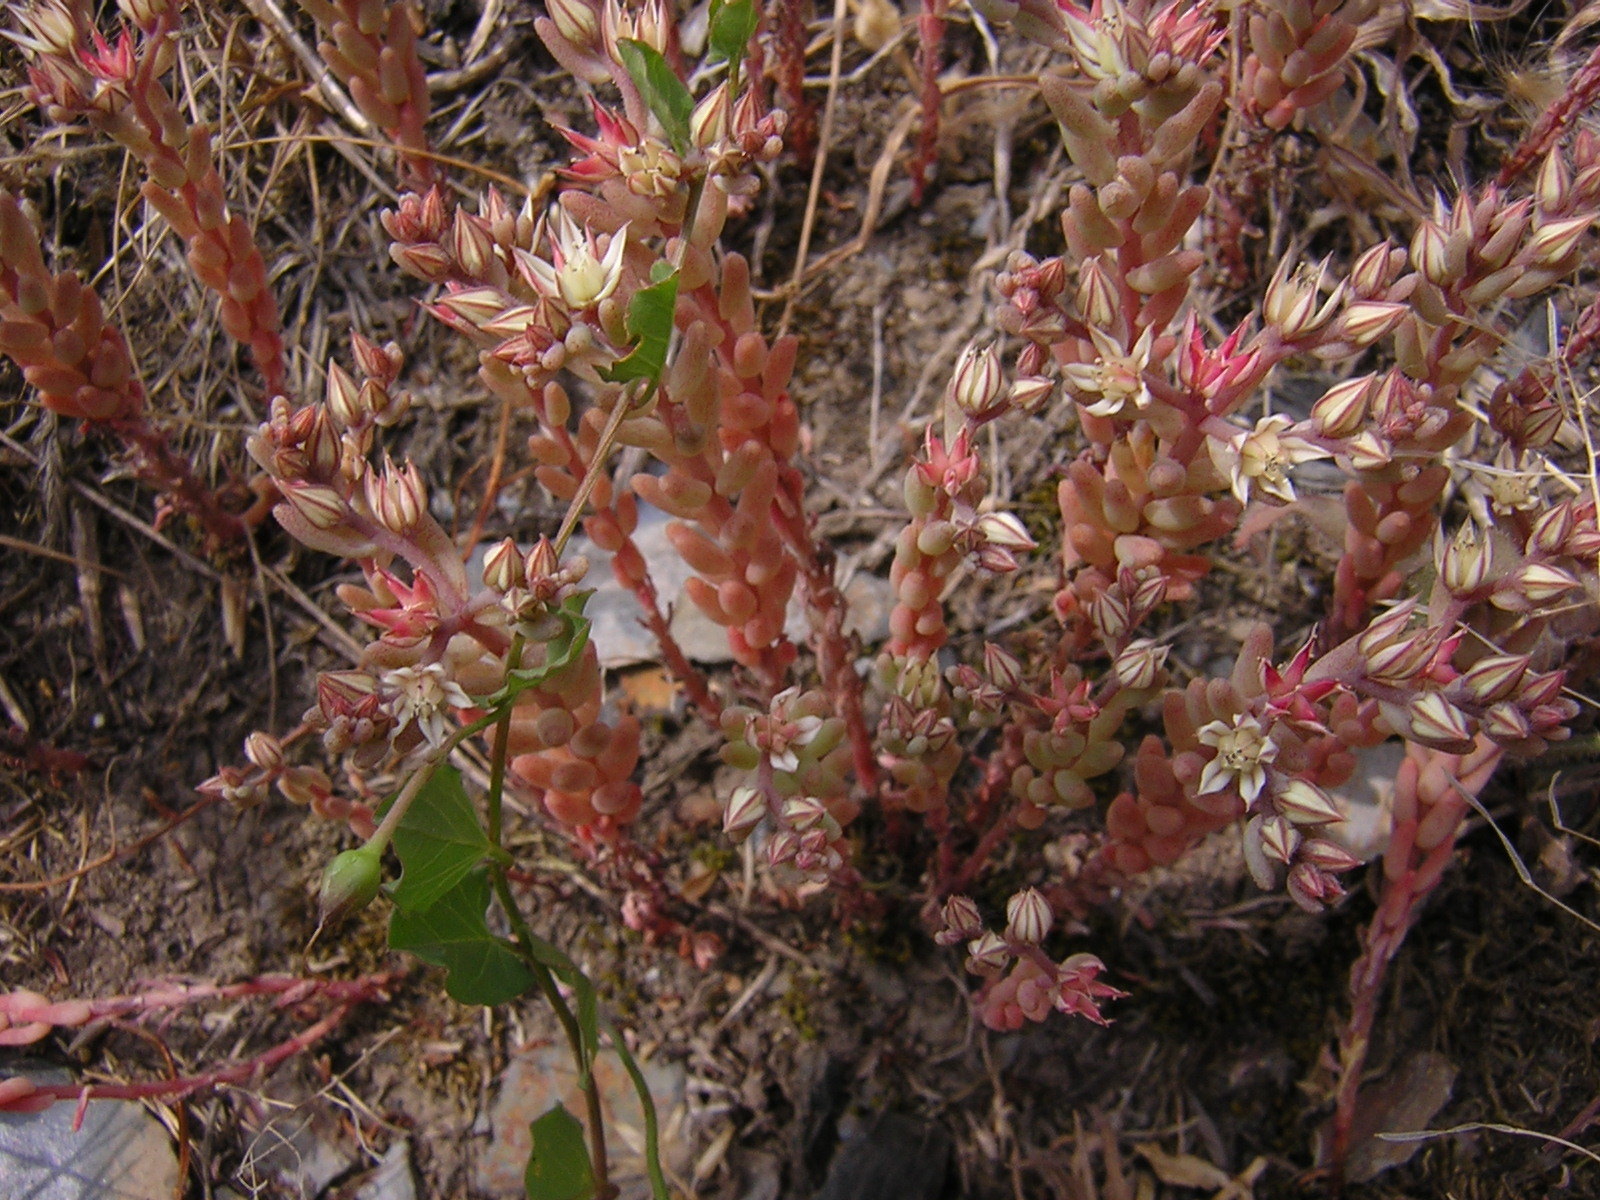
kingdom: Plantae
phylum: Tracheophyta
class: Magnoliopsida
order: Saxifragales
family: Crassulaceae
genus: Sedum
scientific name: Sedum rubens
